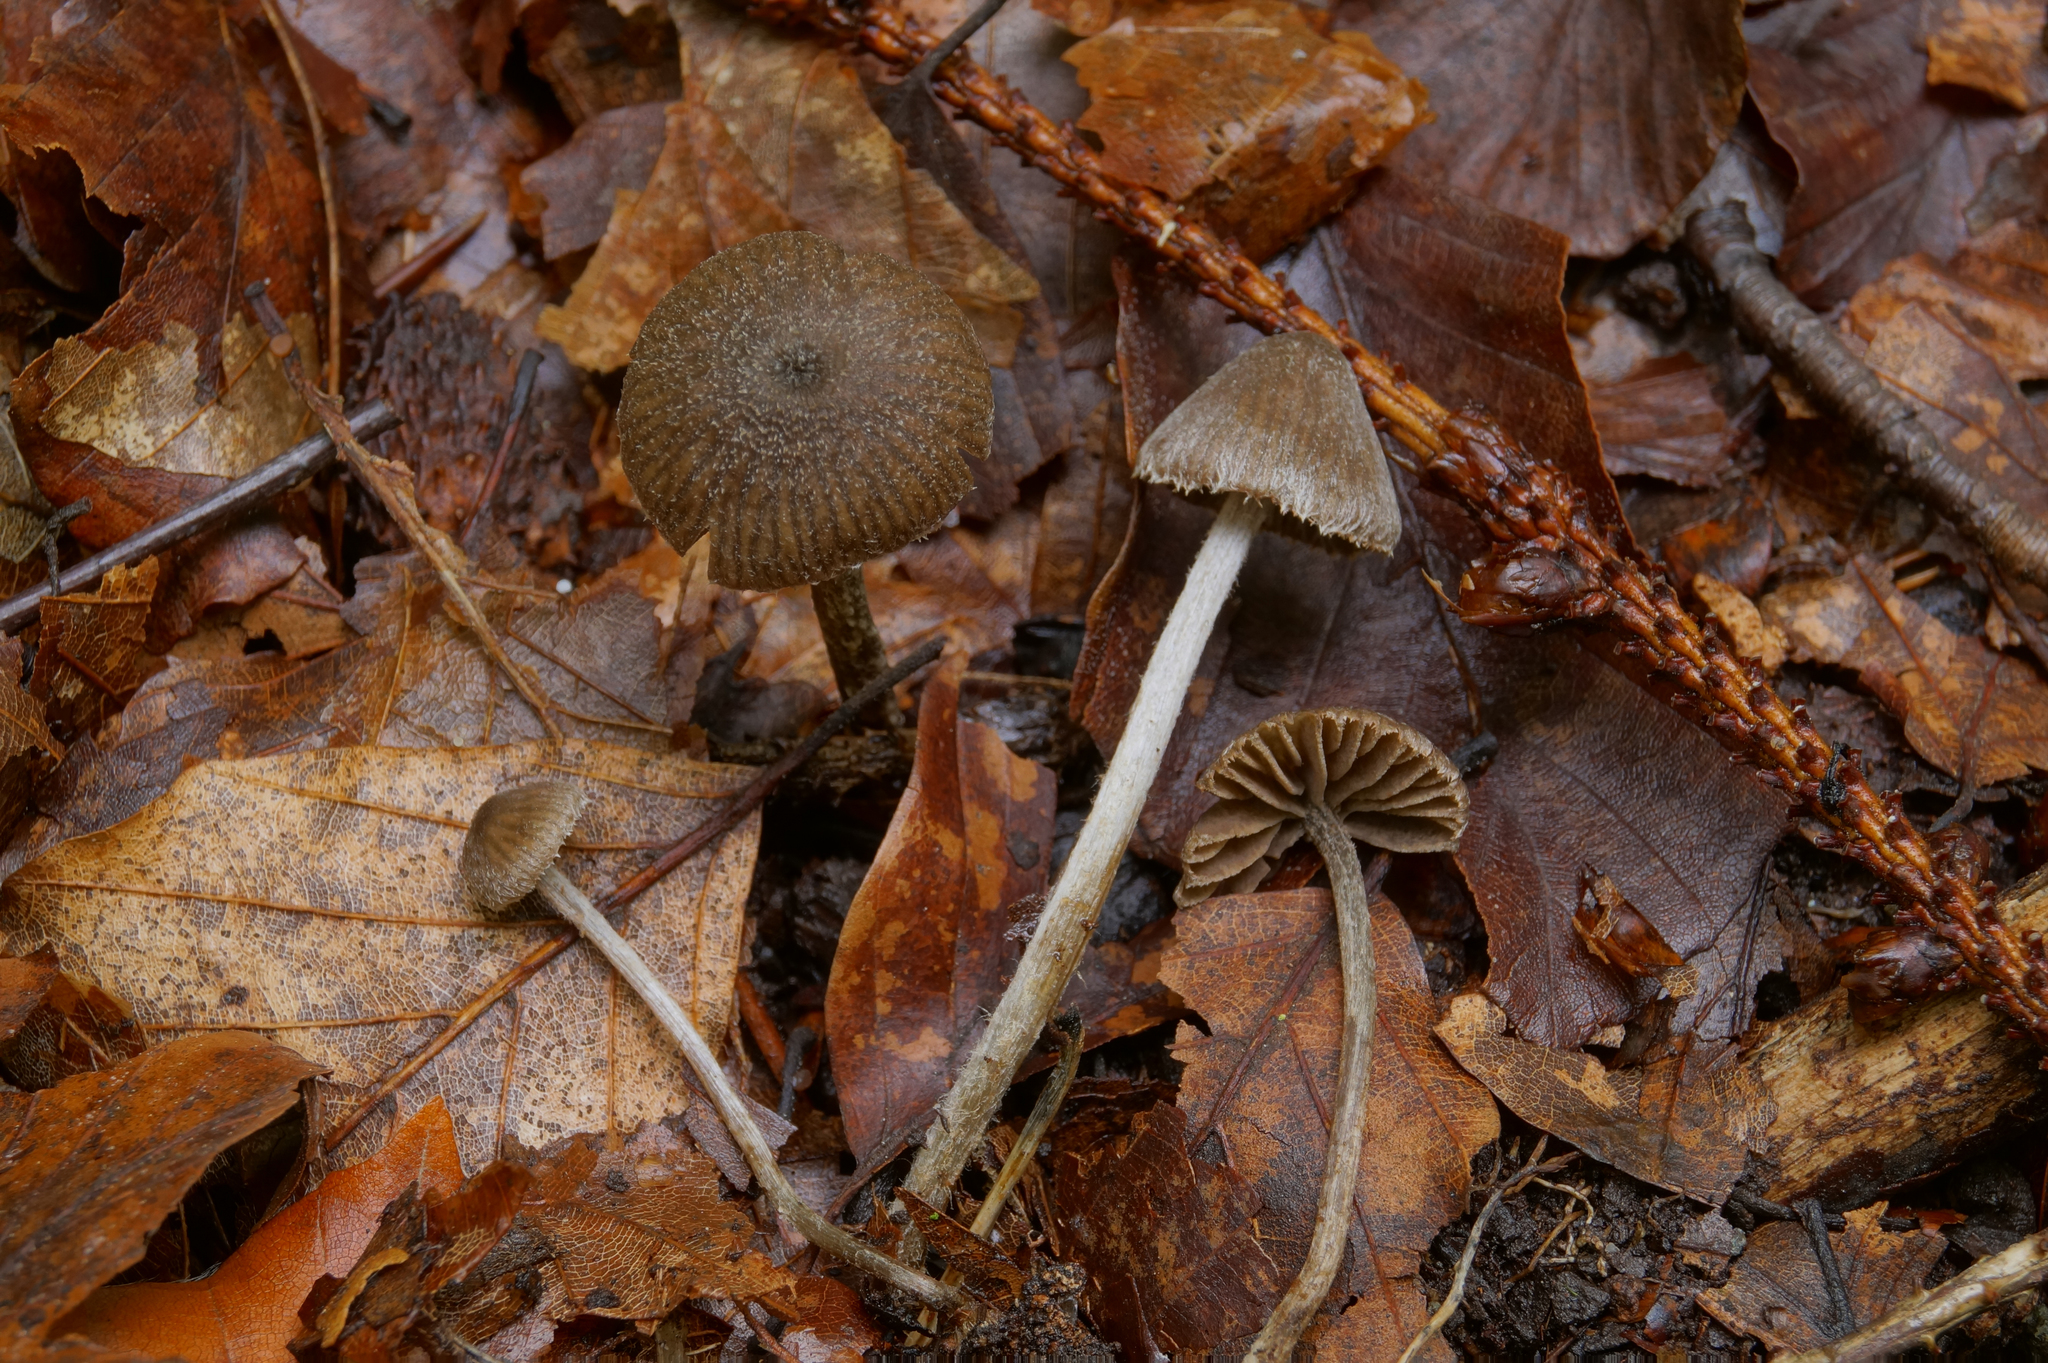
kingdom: Fungi
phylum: Basidiomycota
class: Agaricomycetes
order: Agaricales
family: Entolomataceae
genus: Entoloma
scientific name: Entoloma dysthales
